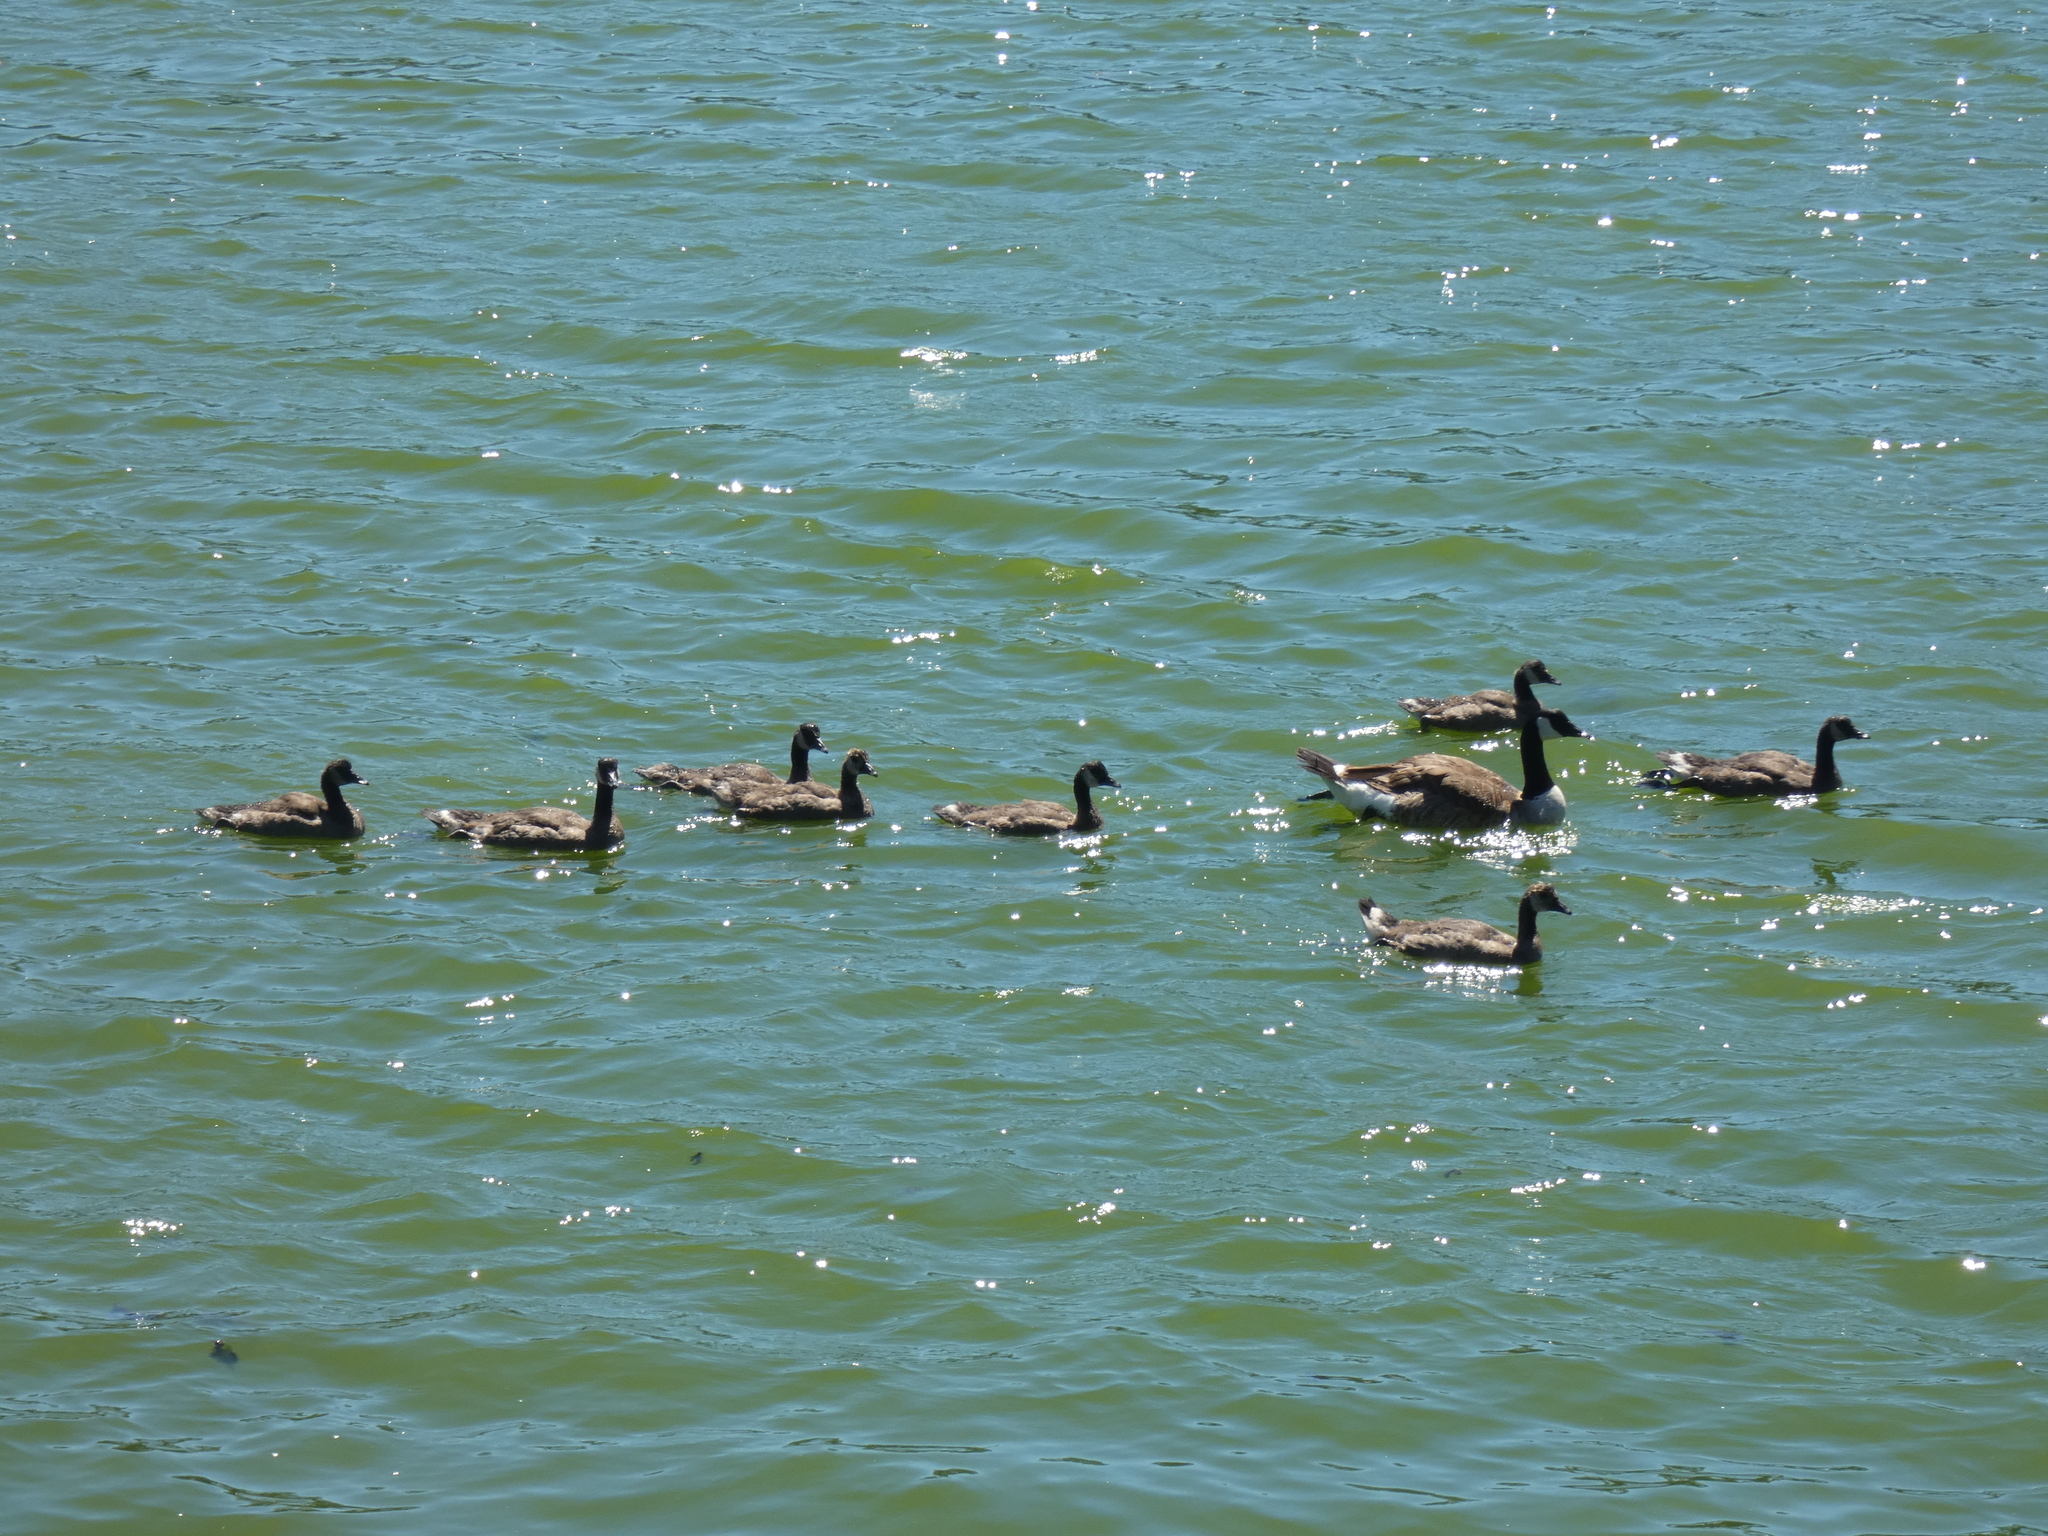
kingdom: Animalia
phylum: Chordata
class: Aves
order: Anseriformes
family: Anatidae
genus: Branta
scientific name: Branta canadensis
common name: Canada goose
